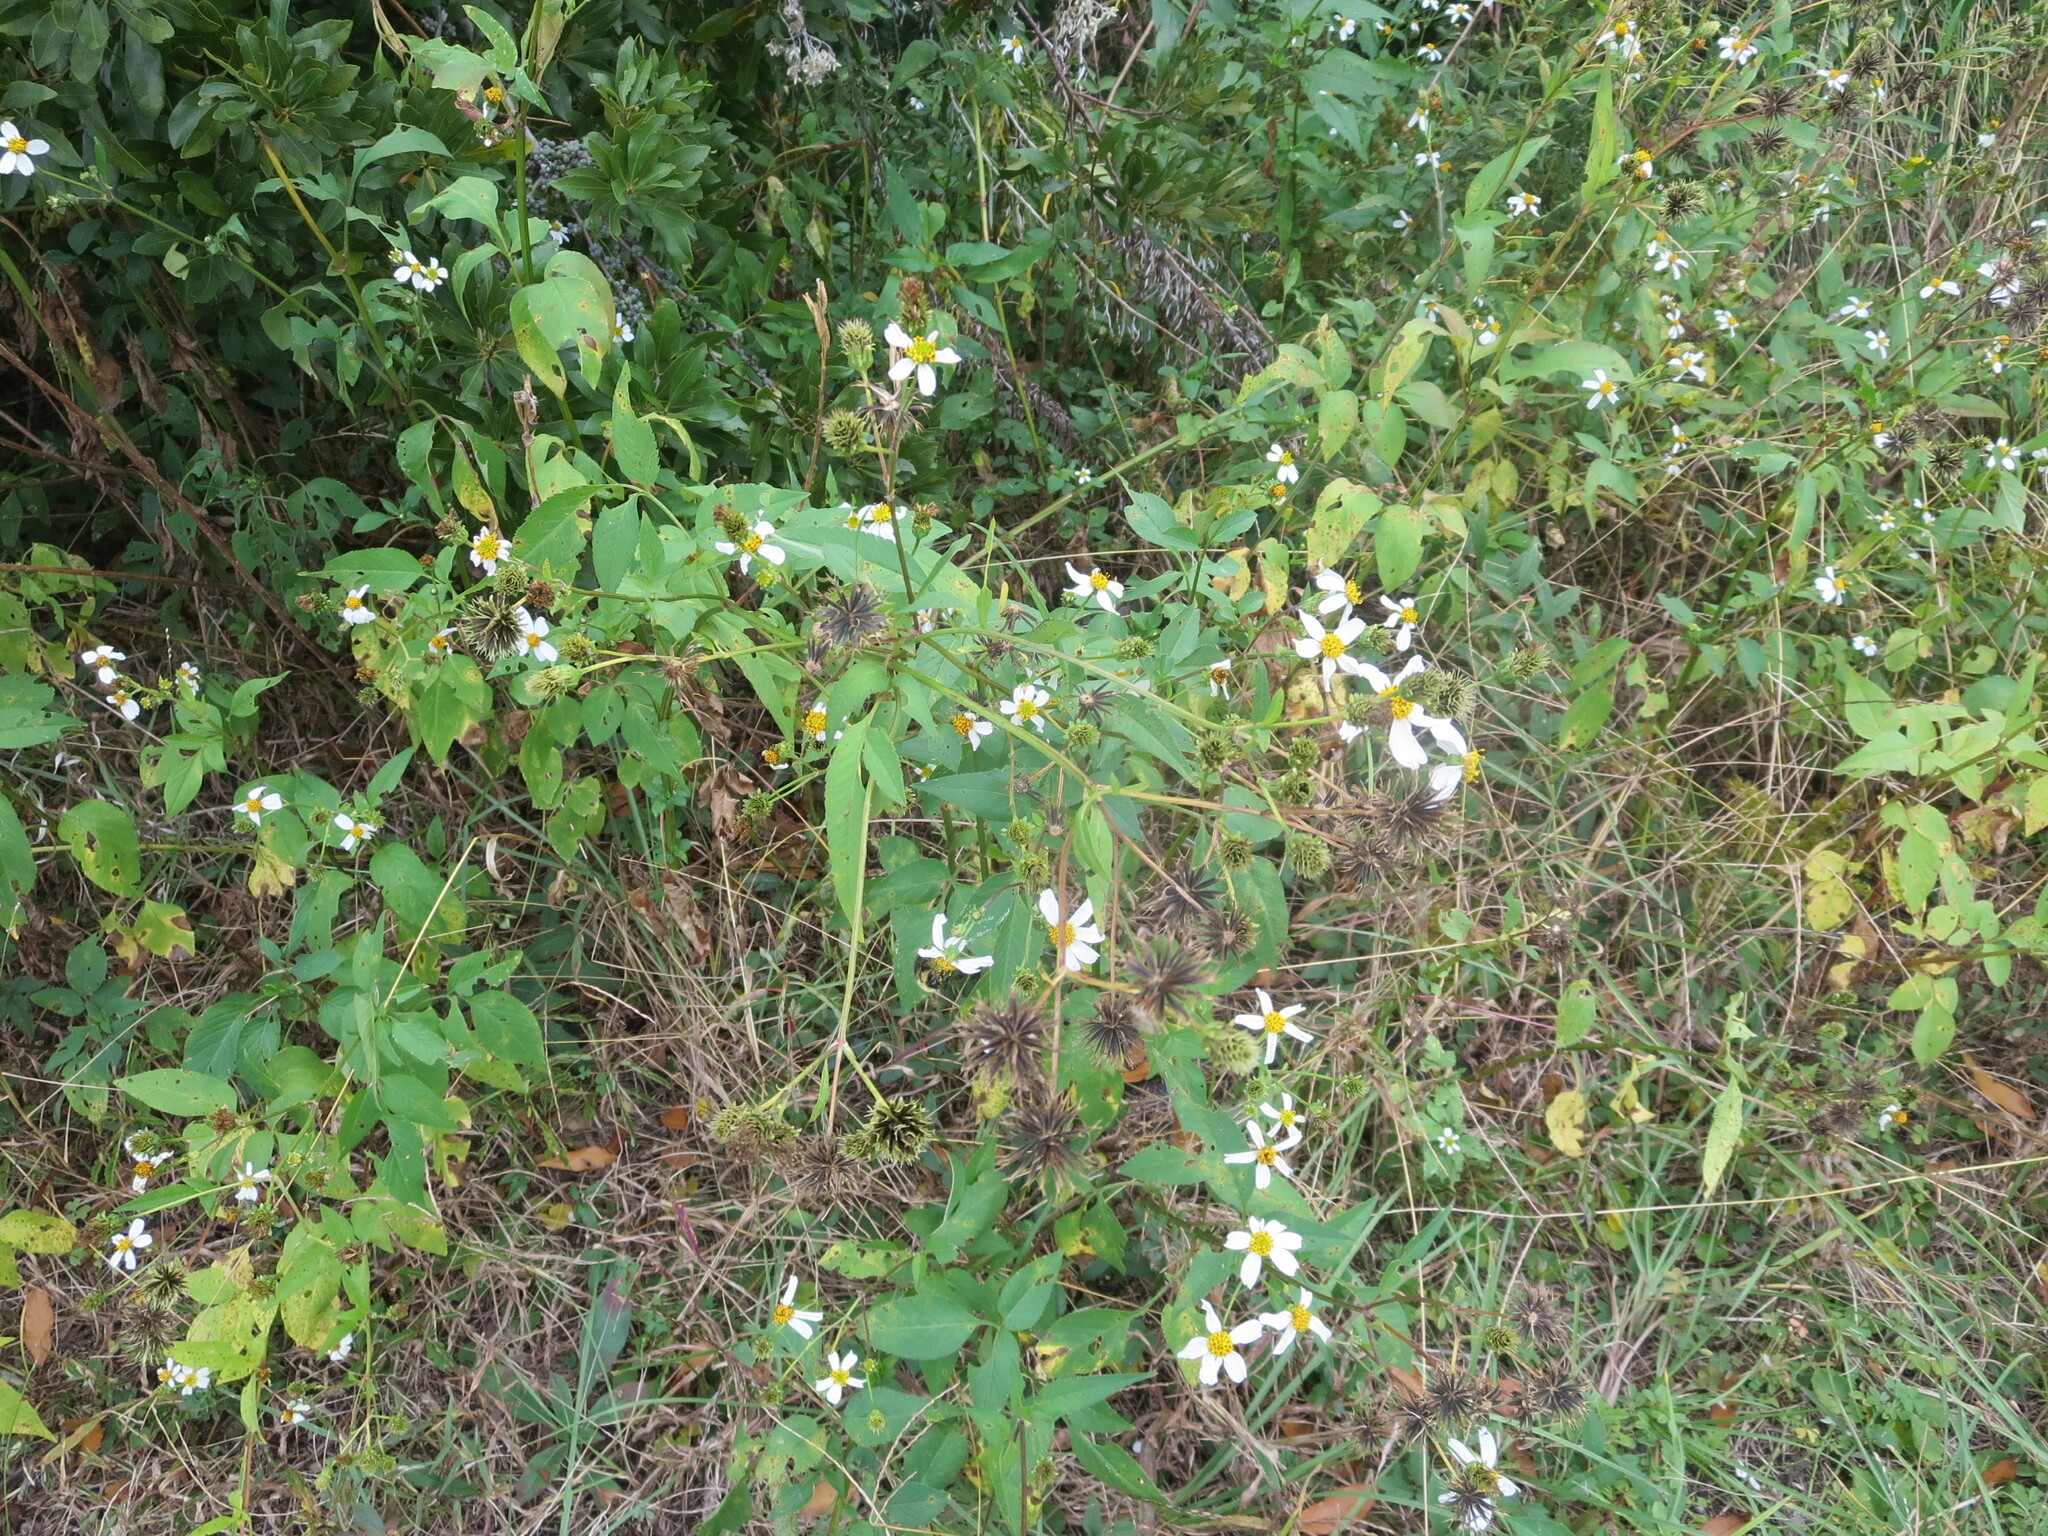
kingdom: Plantae
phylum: Tracheophyta
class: Magnoliopsida
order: Asterales
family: Asteraceae
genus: Bidens
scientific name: Bidens alba
